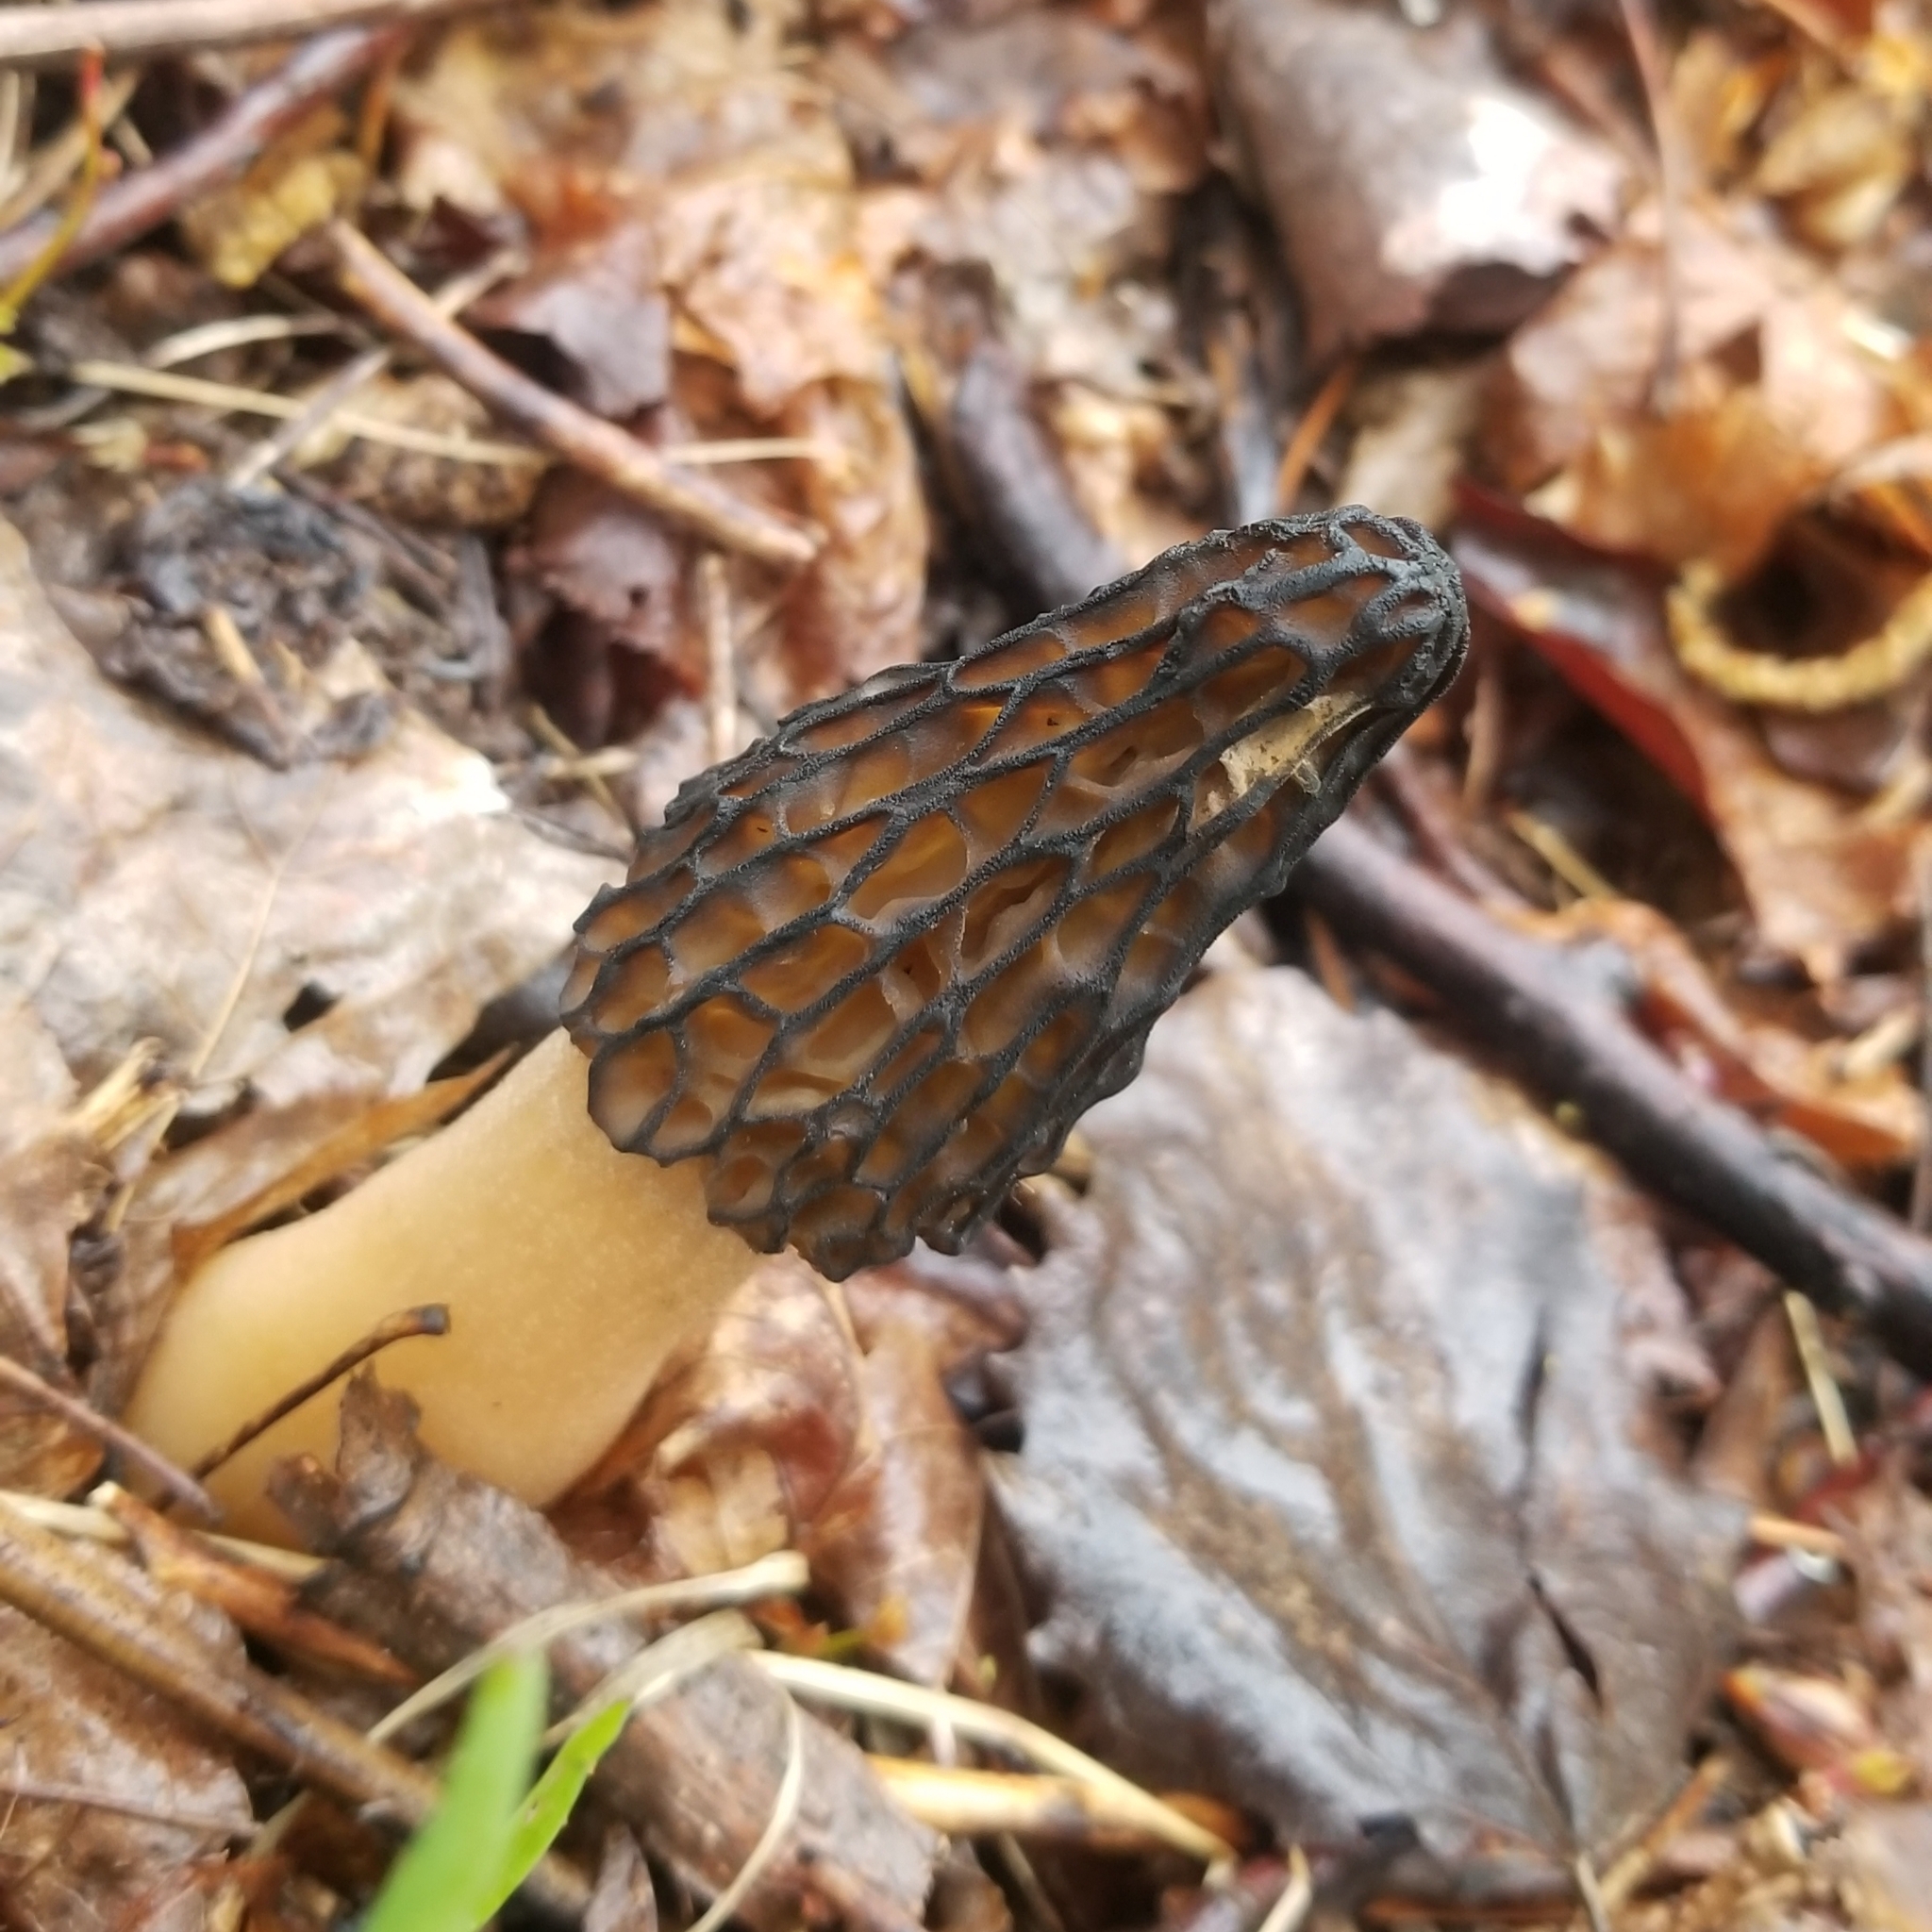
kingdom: Fungi
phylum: Ascomycota
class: Pezizomycetes
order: Pezizales
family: Morchellaceae
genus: Morchella
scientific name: Morchella angusticeps
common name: Black morel
